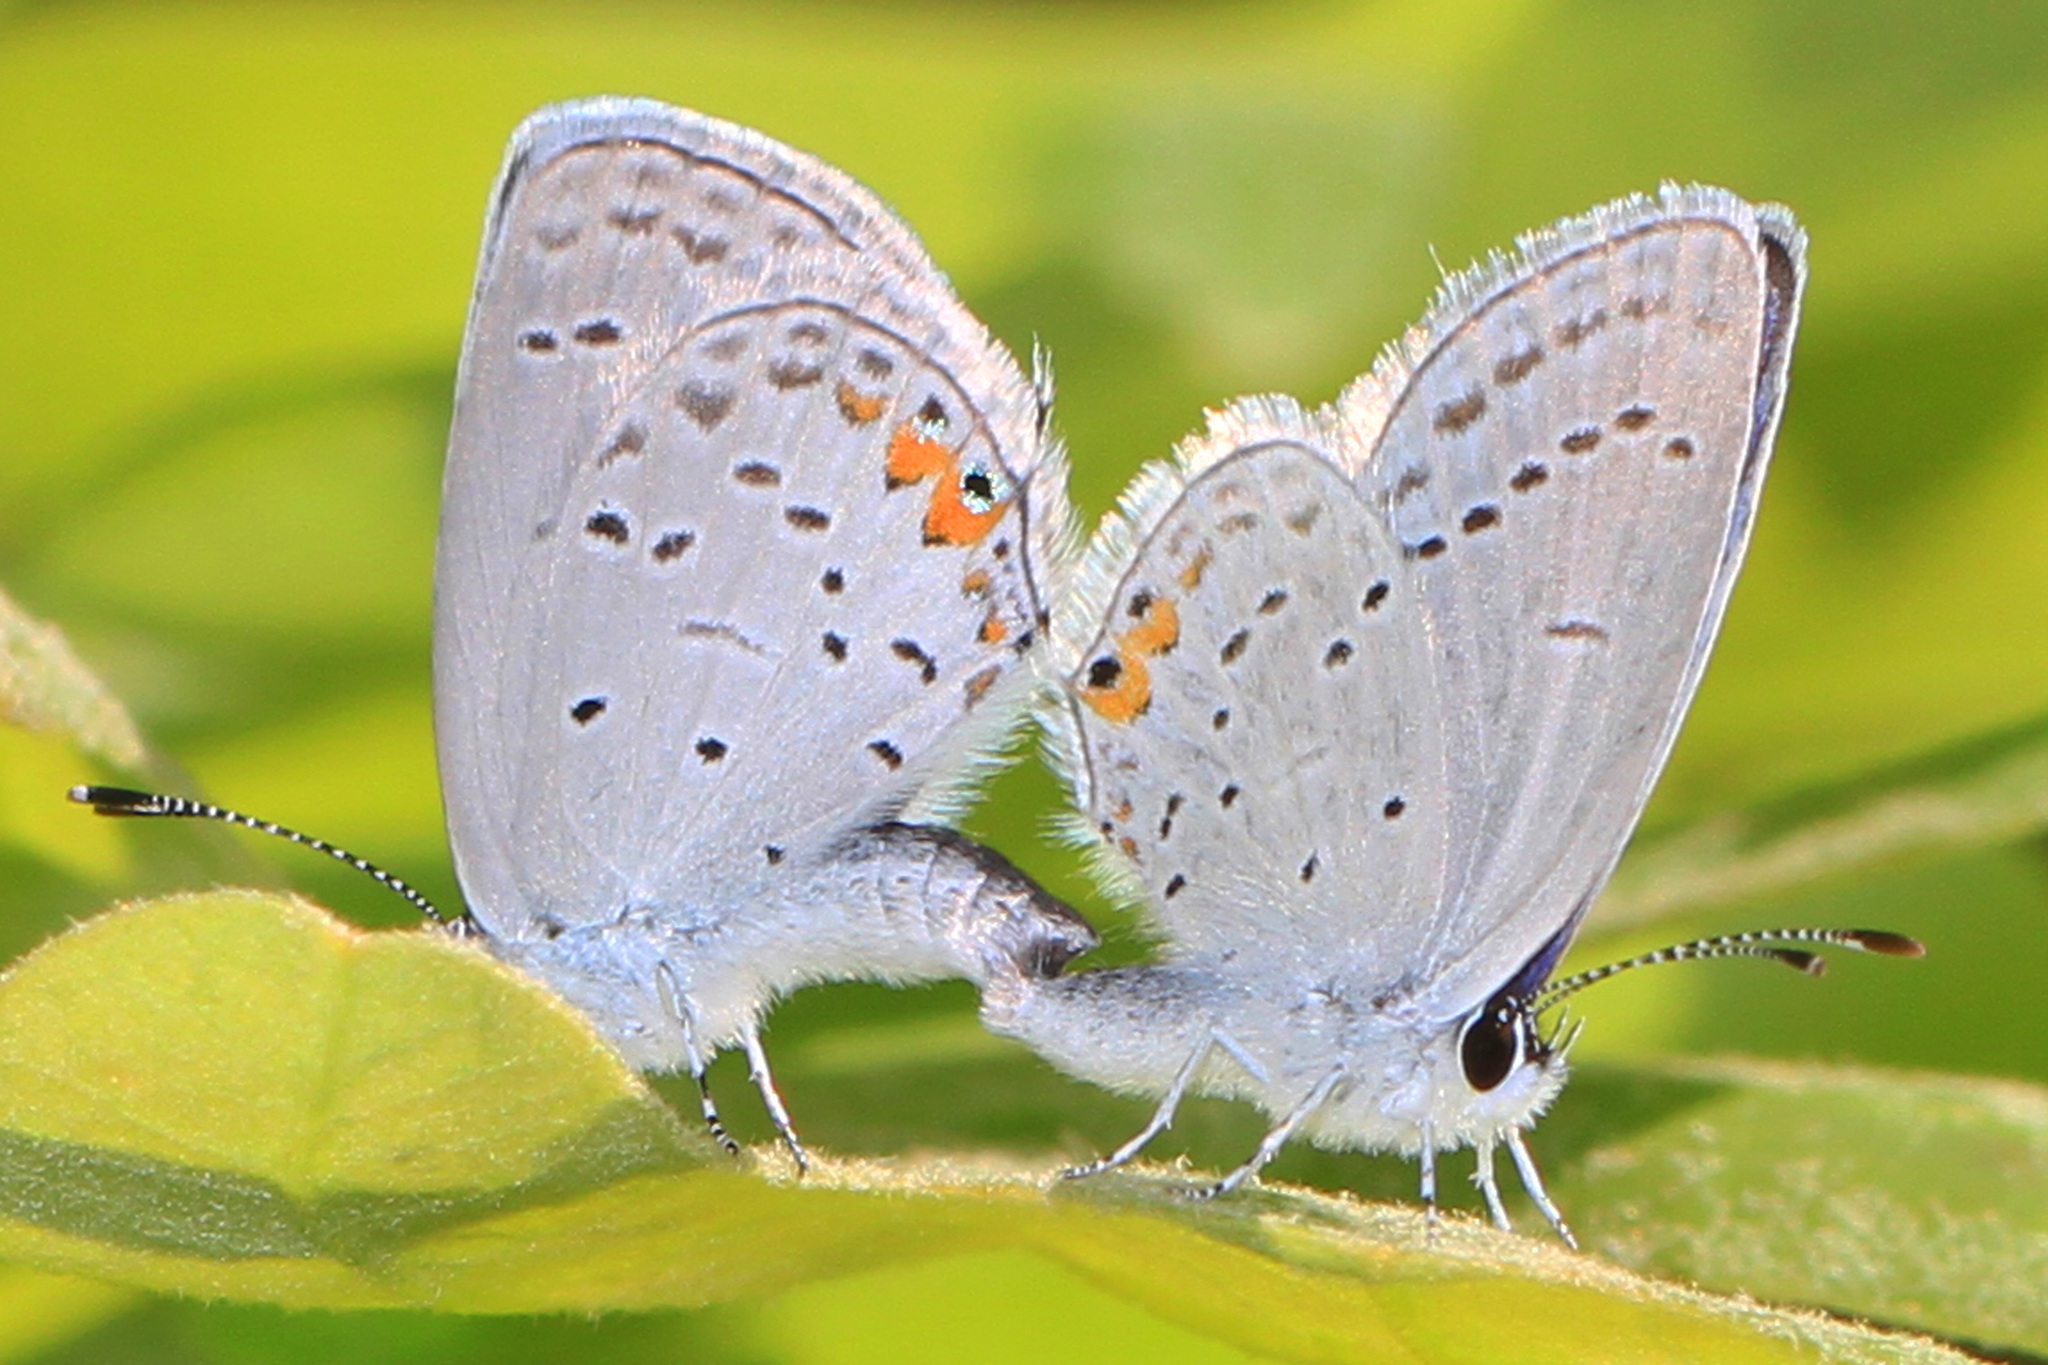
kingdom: Animalia
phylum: Arthropoda
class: Insecta
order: Lepidoptera
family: Lycaenidae
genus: Elkalyce
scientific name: Elkalyce comyntas
